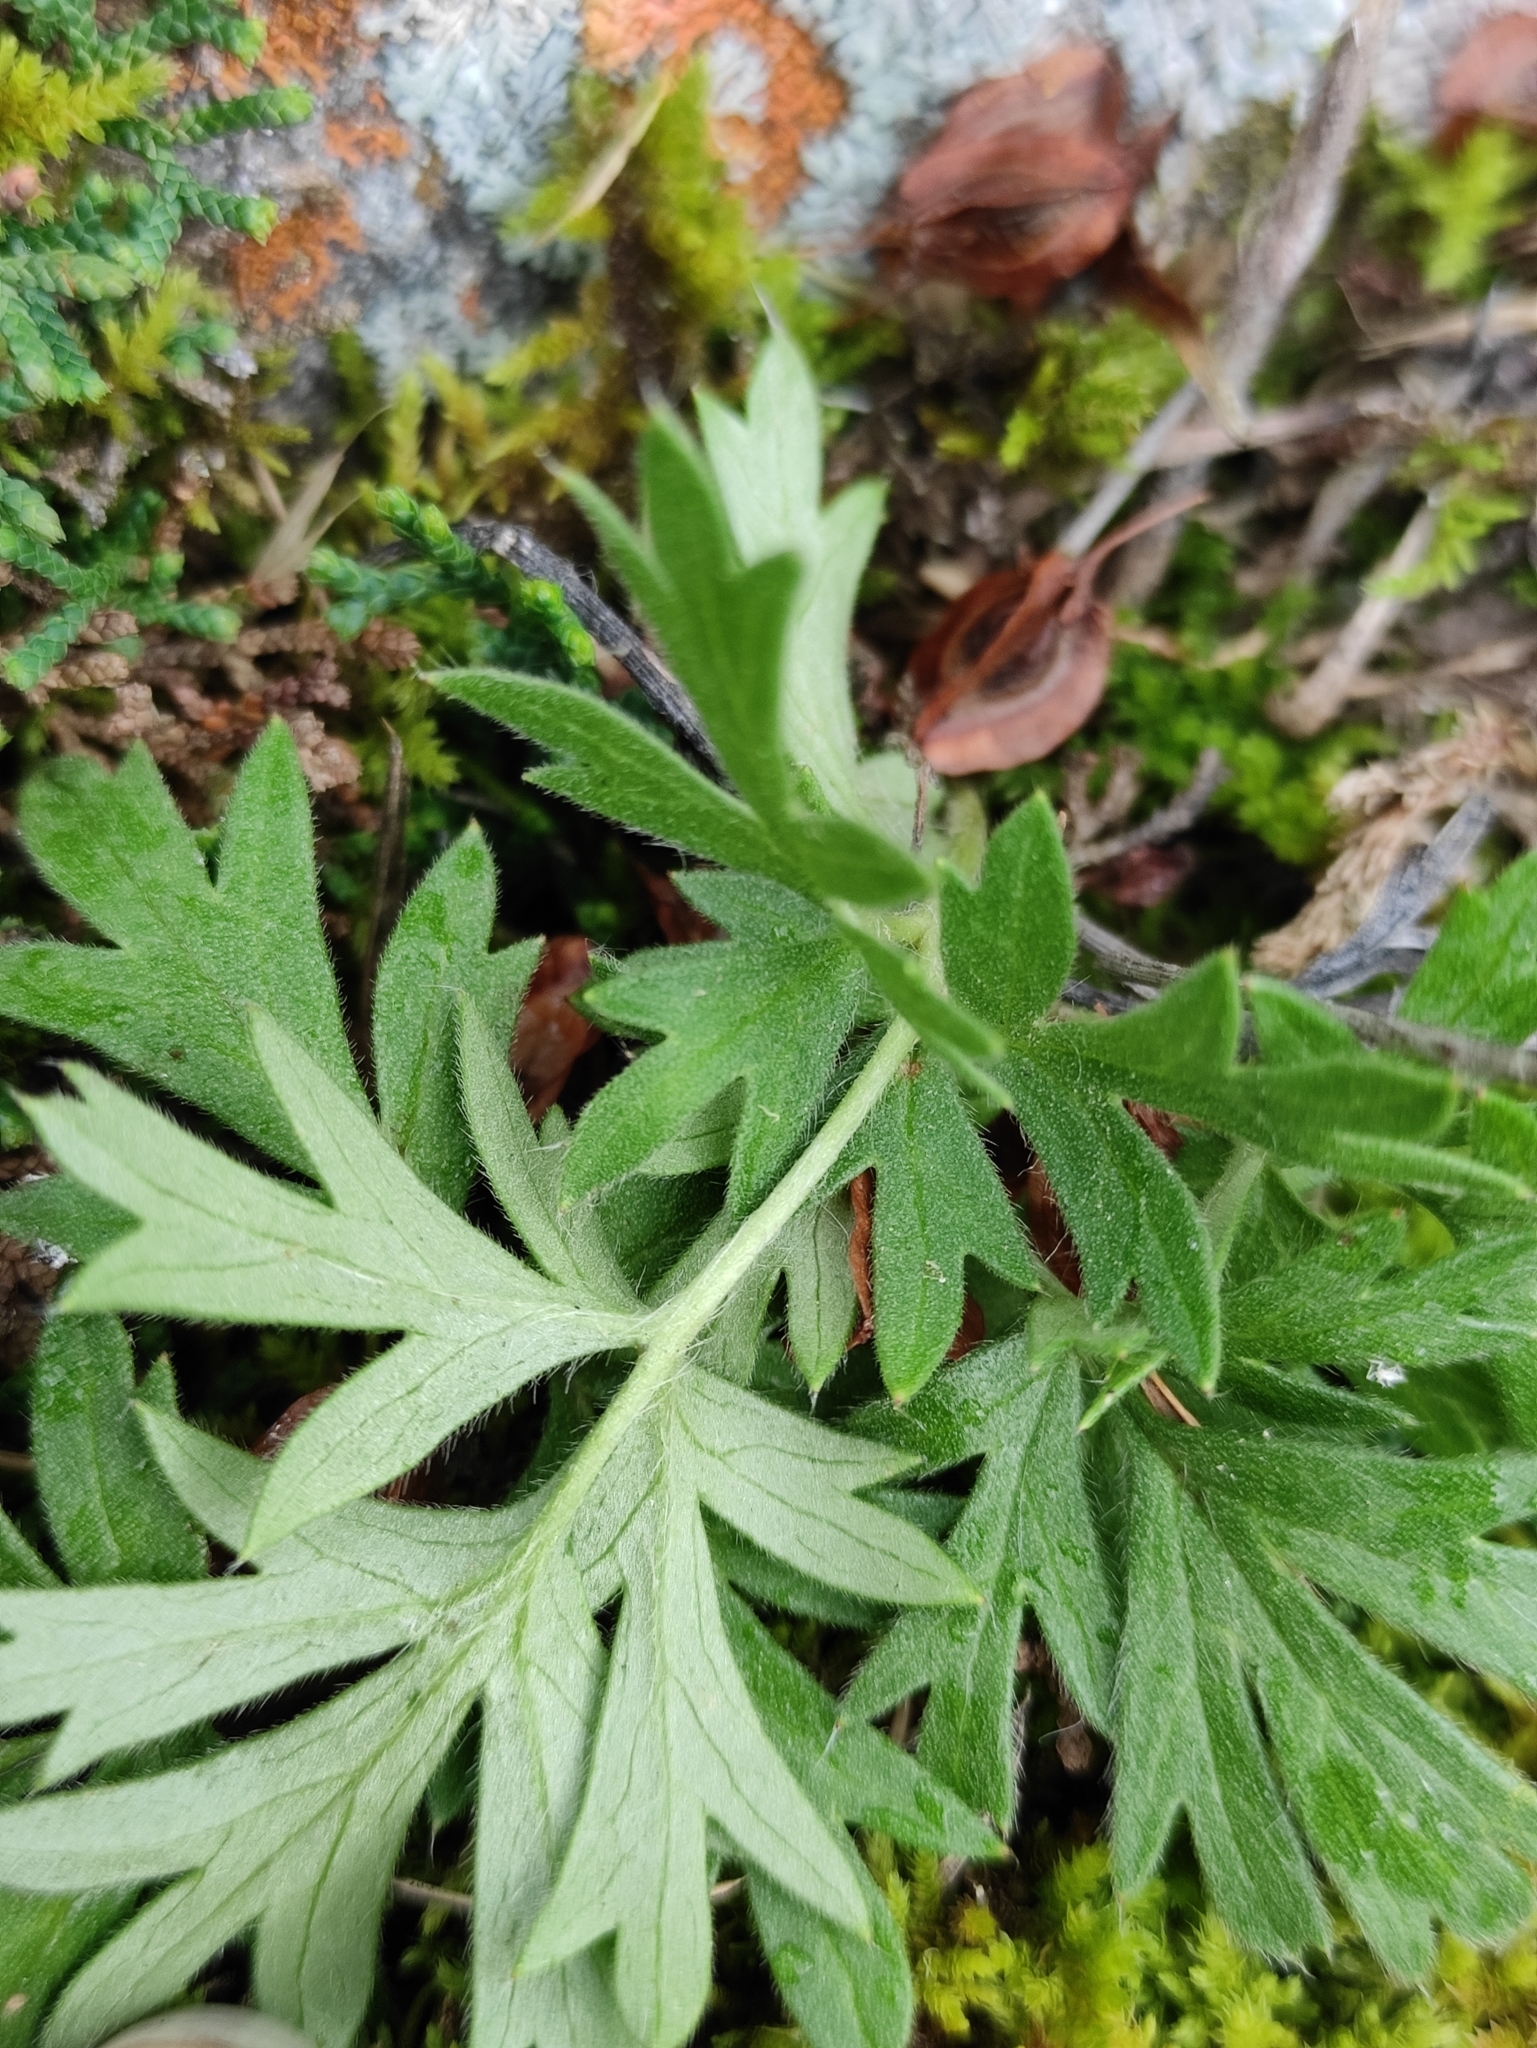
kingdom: Plantae
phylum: Tracheophyta
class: Magnoliopsida
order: Ranunculales
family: Ranunculaceae
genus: Pulsatilla
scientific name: Pulsatilla ambigua
